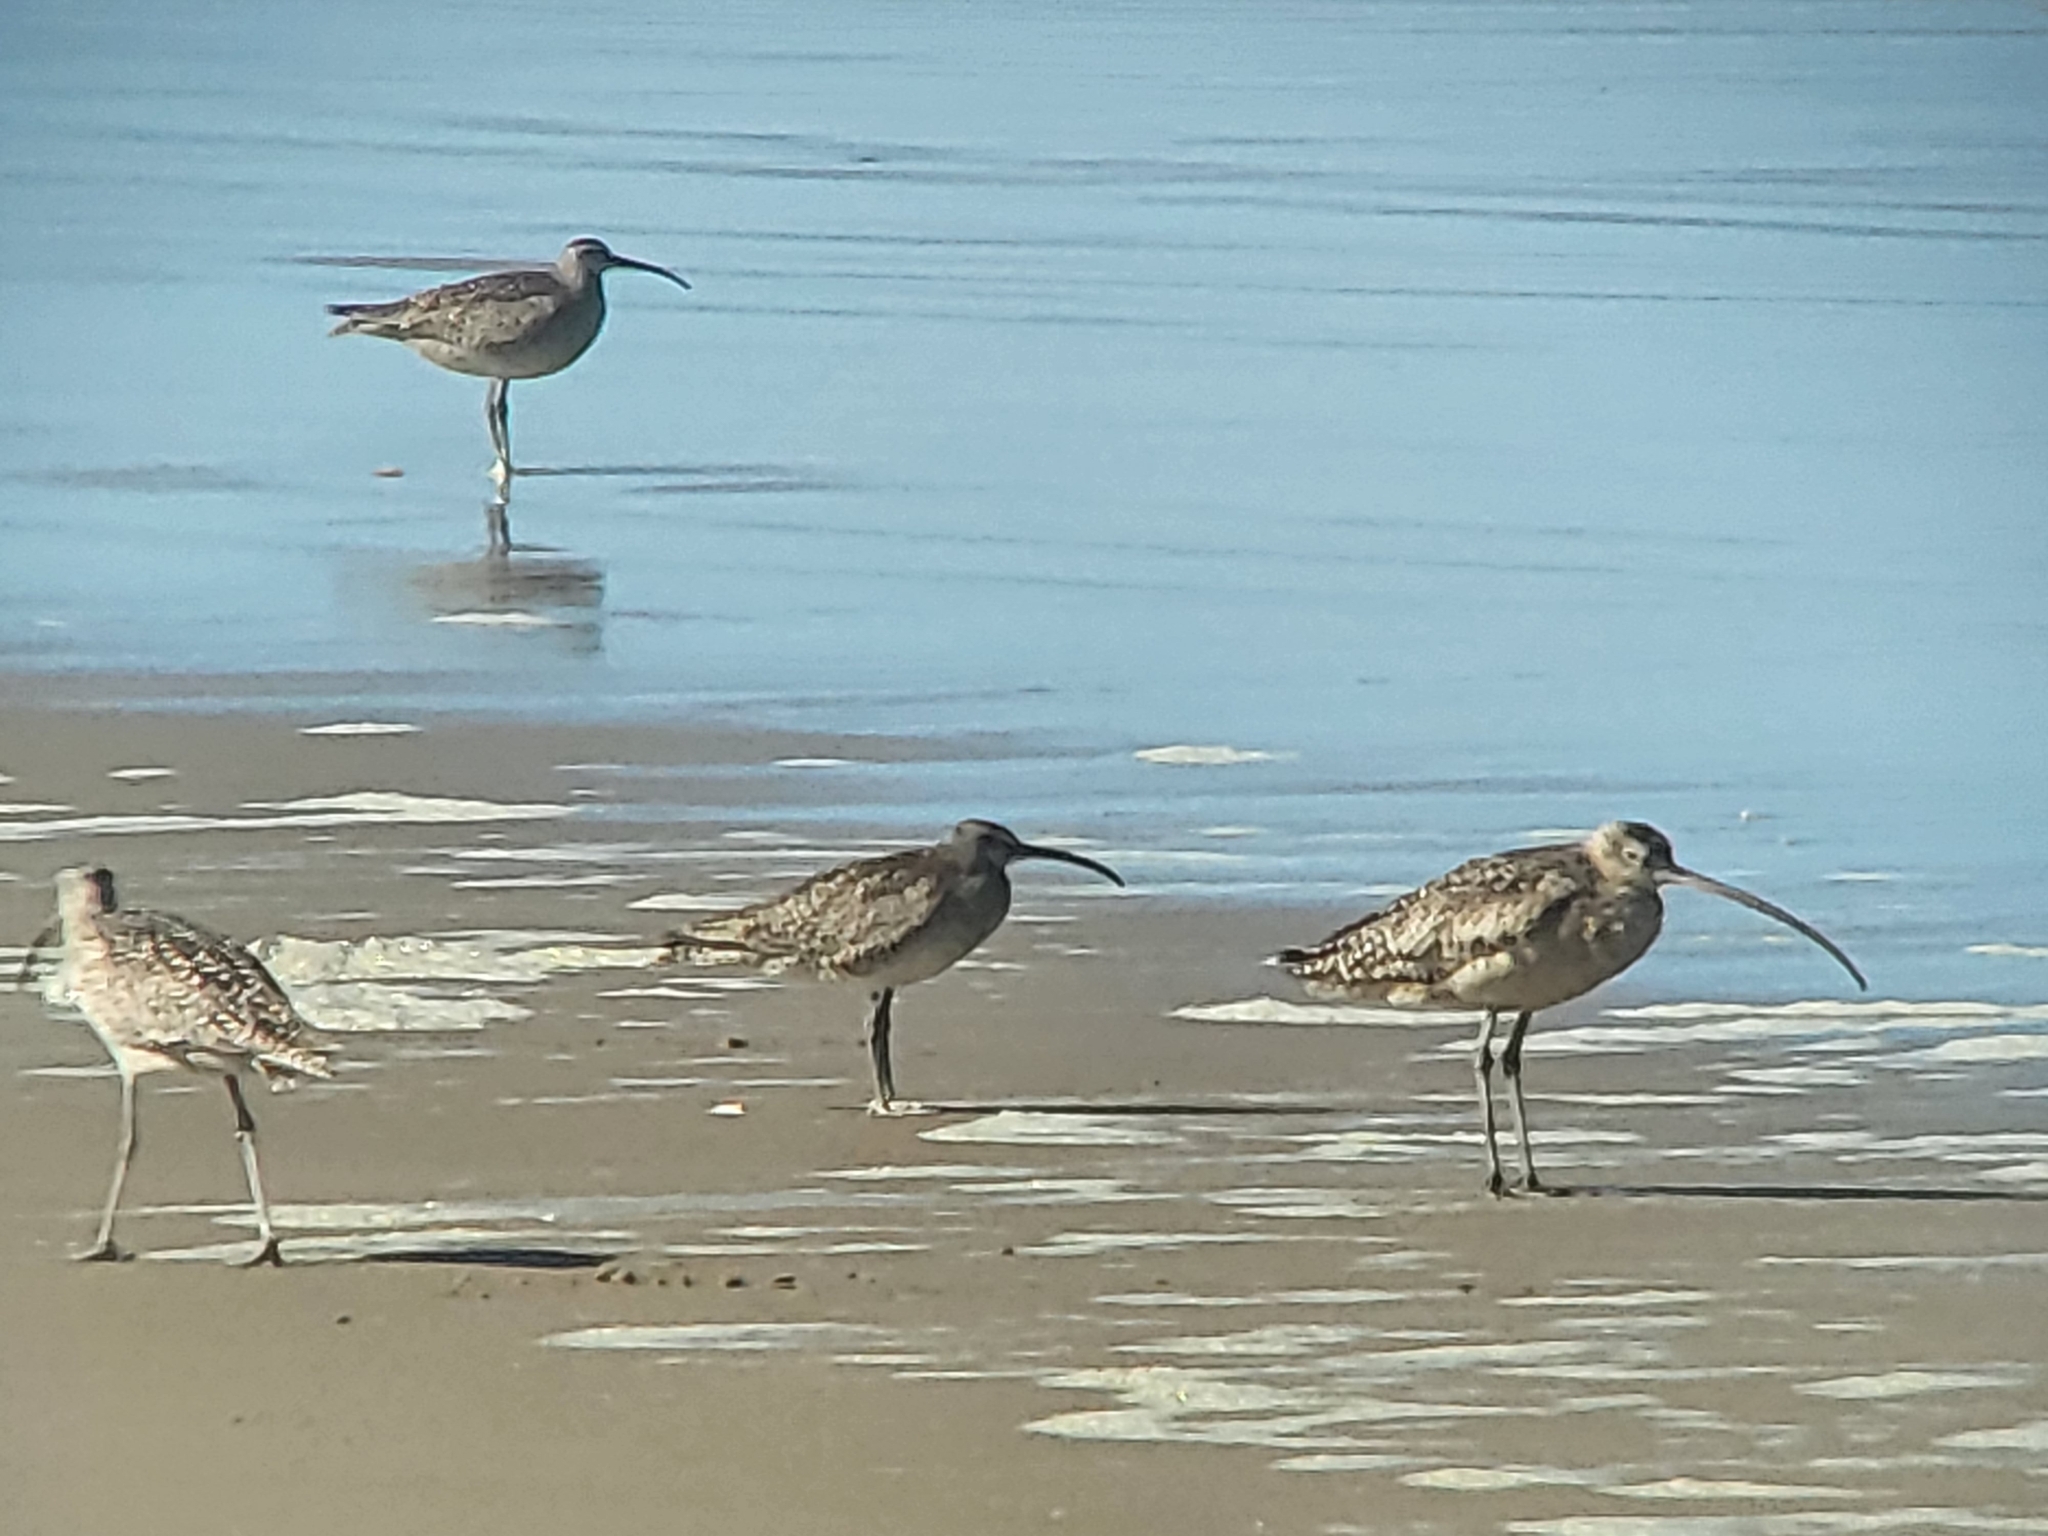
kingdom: Animalia
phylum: Chordata
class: Aves
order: Charadriiformes
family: Scolopacidae
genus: Numenius
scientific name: Numenius phaeopus
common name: Whimbrel
